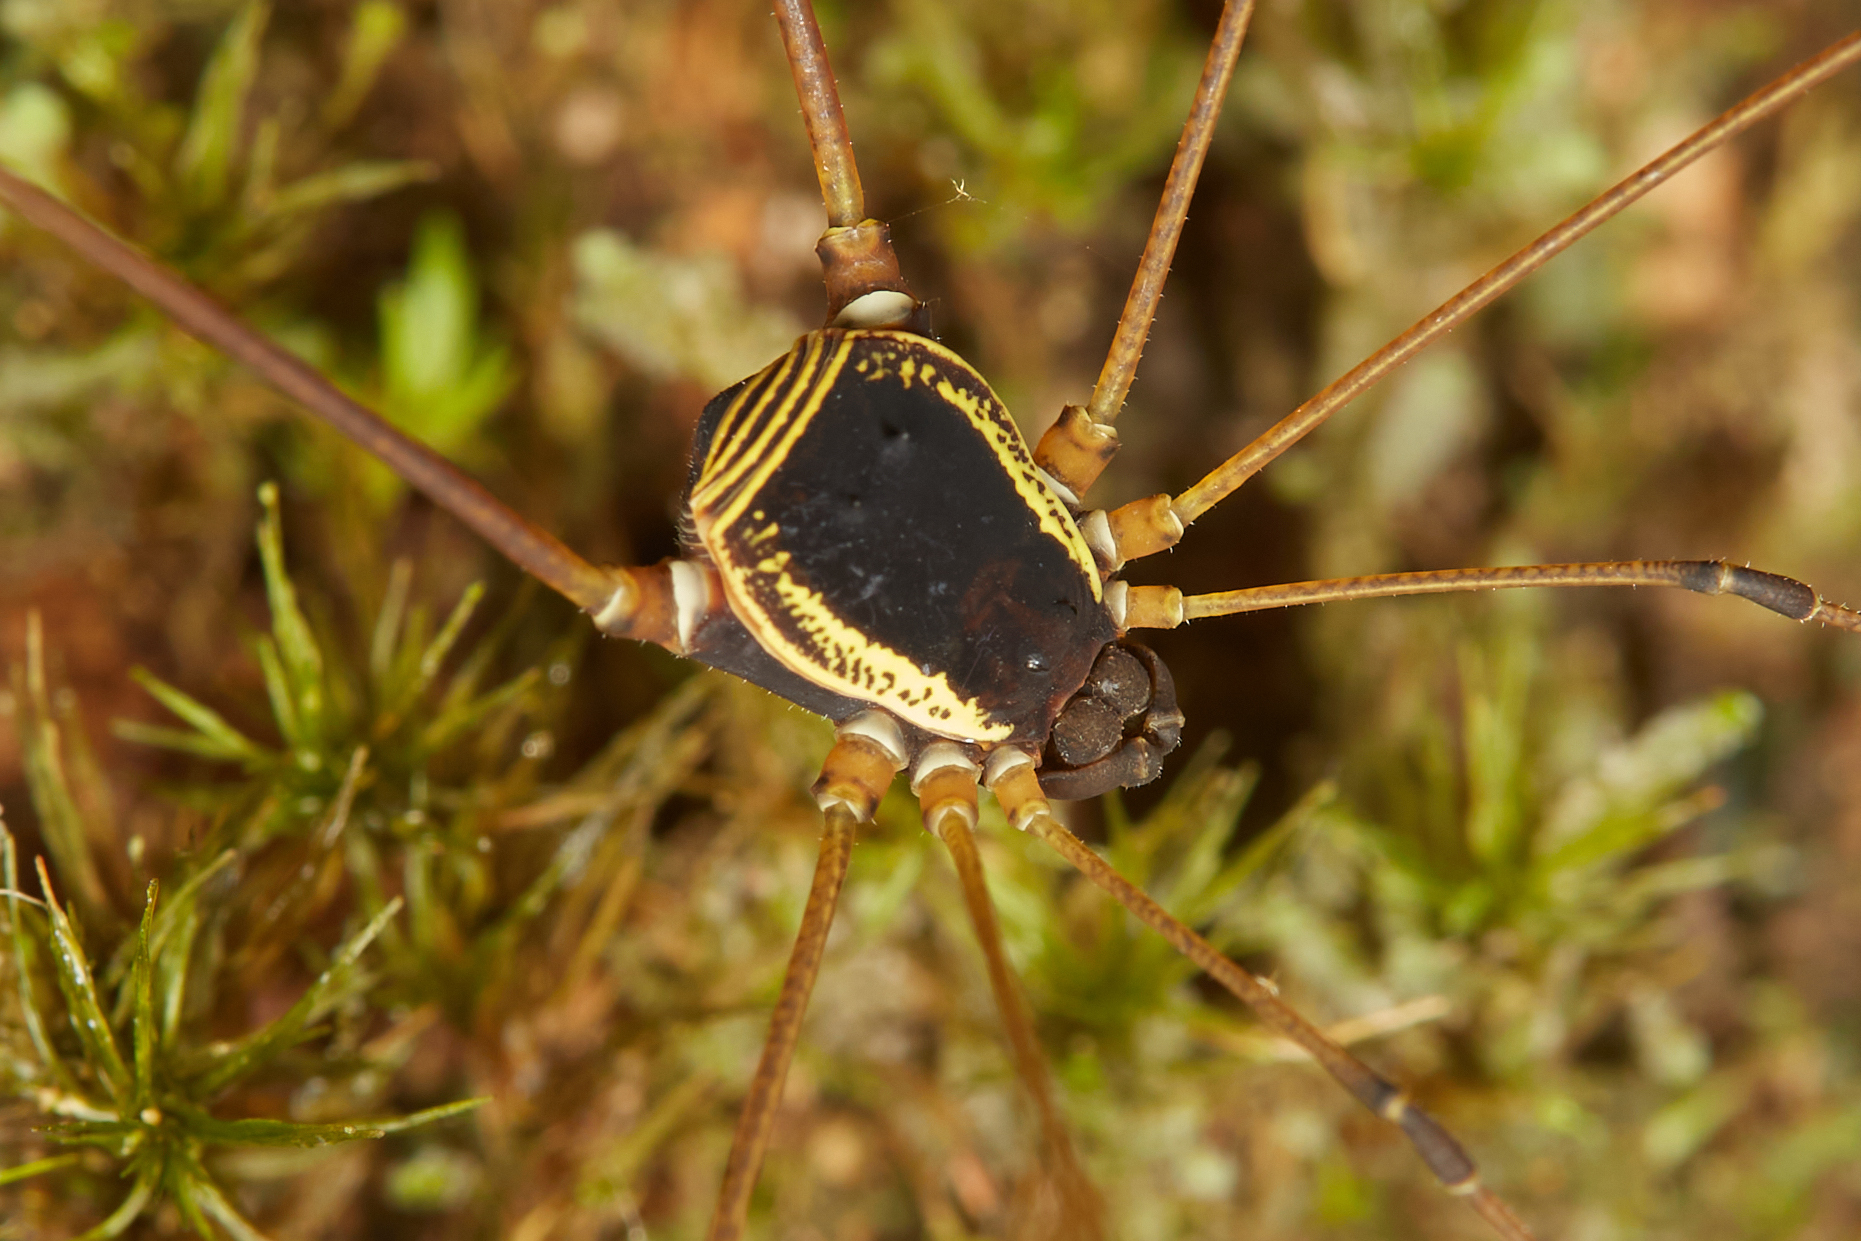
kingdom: Animalia
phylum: Arthropoda
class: Arachnida
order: Opiliones
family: Cosmetidae
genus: Cynorta
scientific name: Cynorta marginalis
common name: Harvestmen
